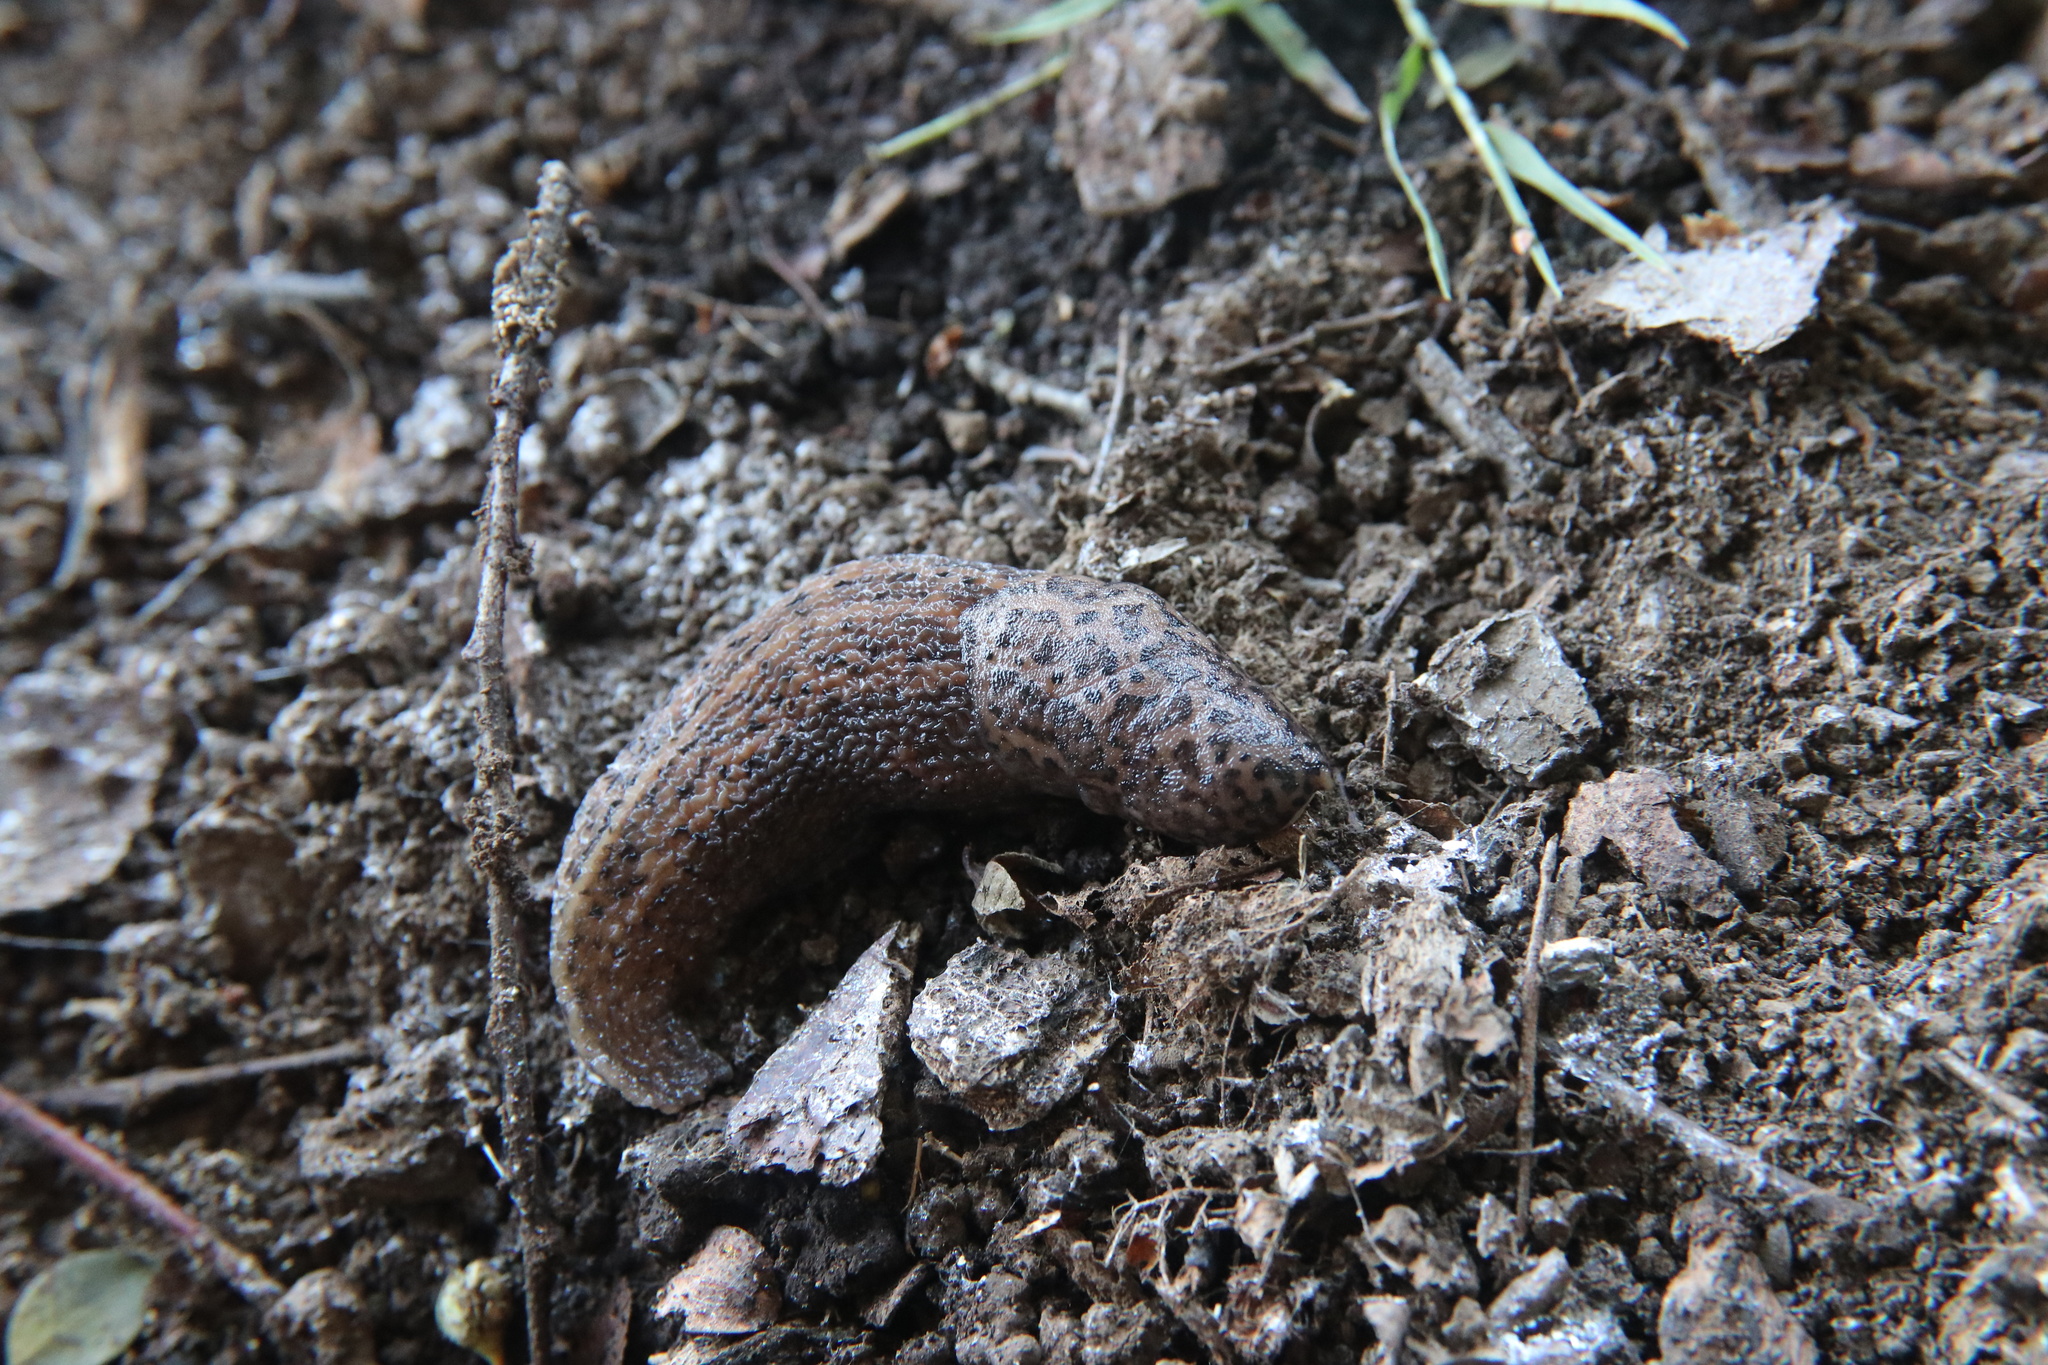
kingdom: Animalia
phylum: Mollusca
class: Gastropoda
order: Stylommatophora
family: Limacidae
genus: Limax
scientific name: Limax maximus
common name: Great grey slug
